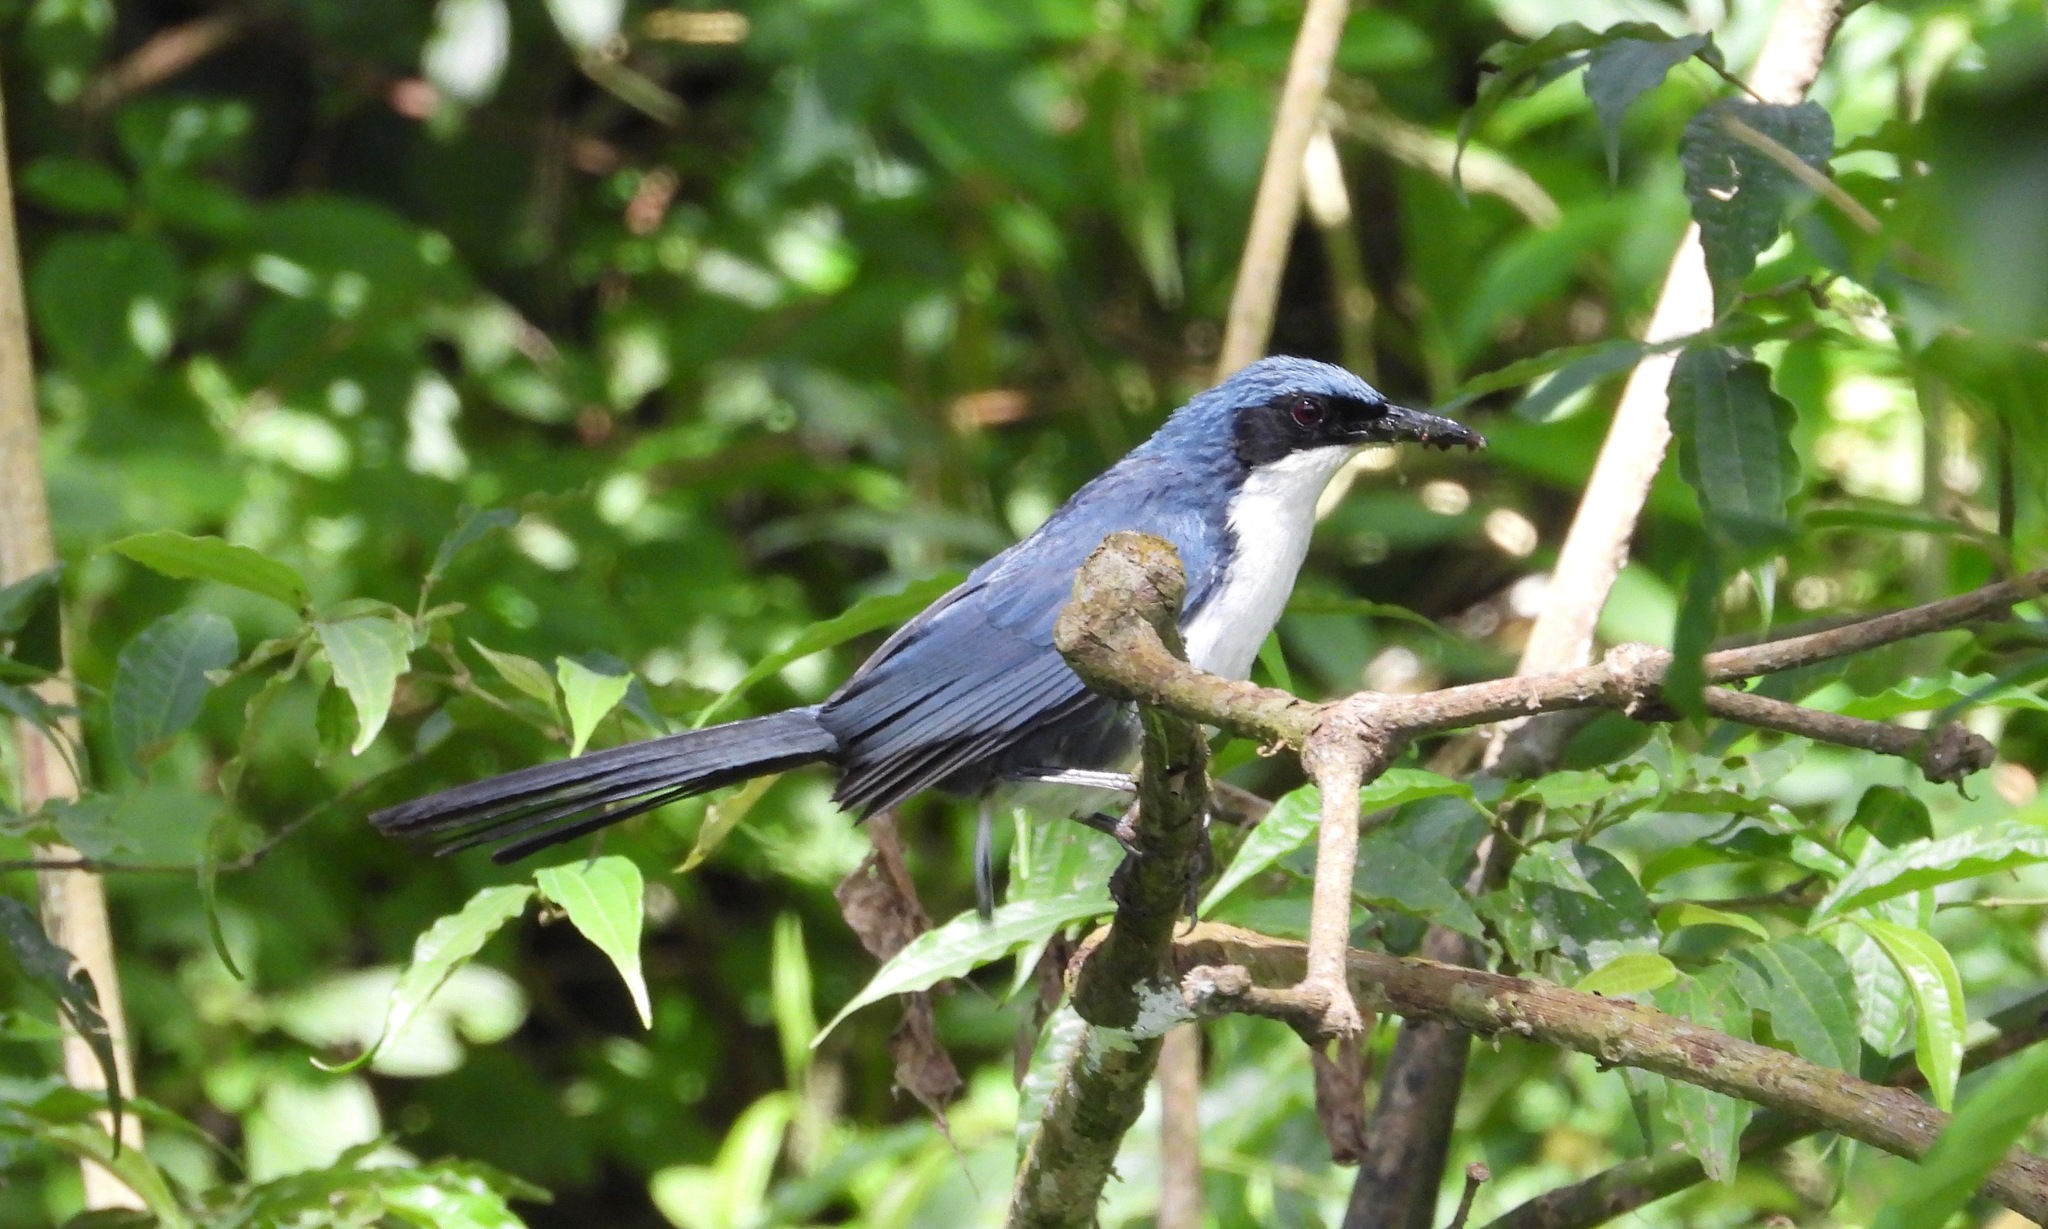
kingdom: Animalia
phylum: Chordata
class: Aves
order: Passeriformes
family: Mimidae
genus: Melanotis
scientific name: Melanotis hypoleucus
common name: Blue-and-white mockingbird
